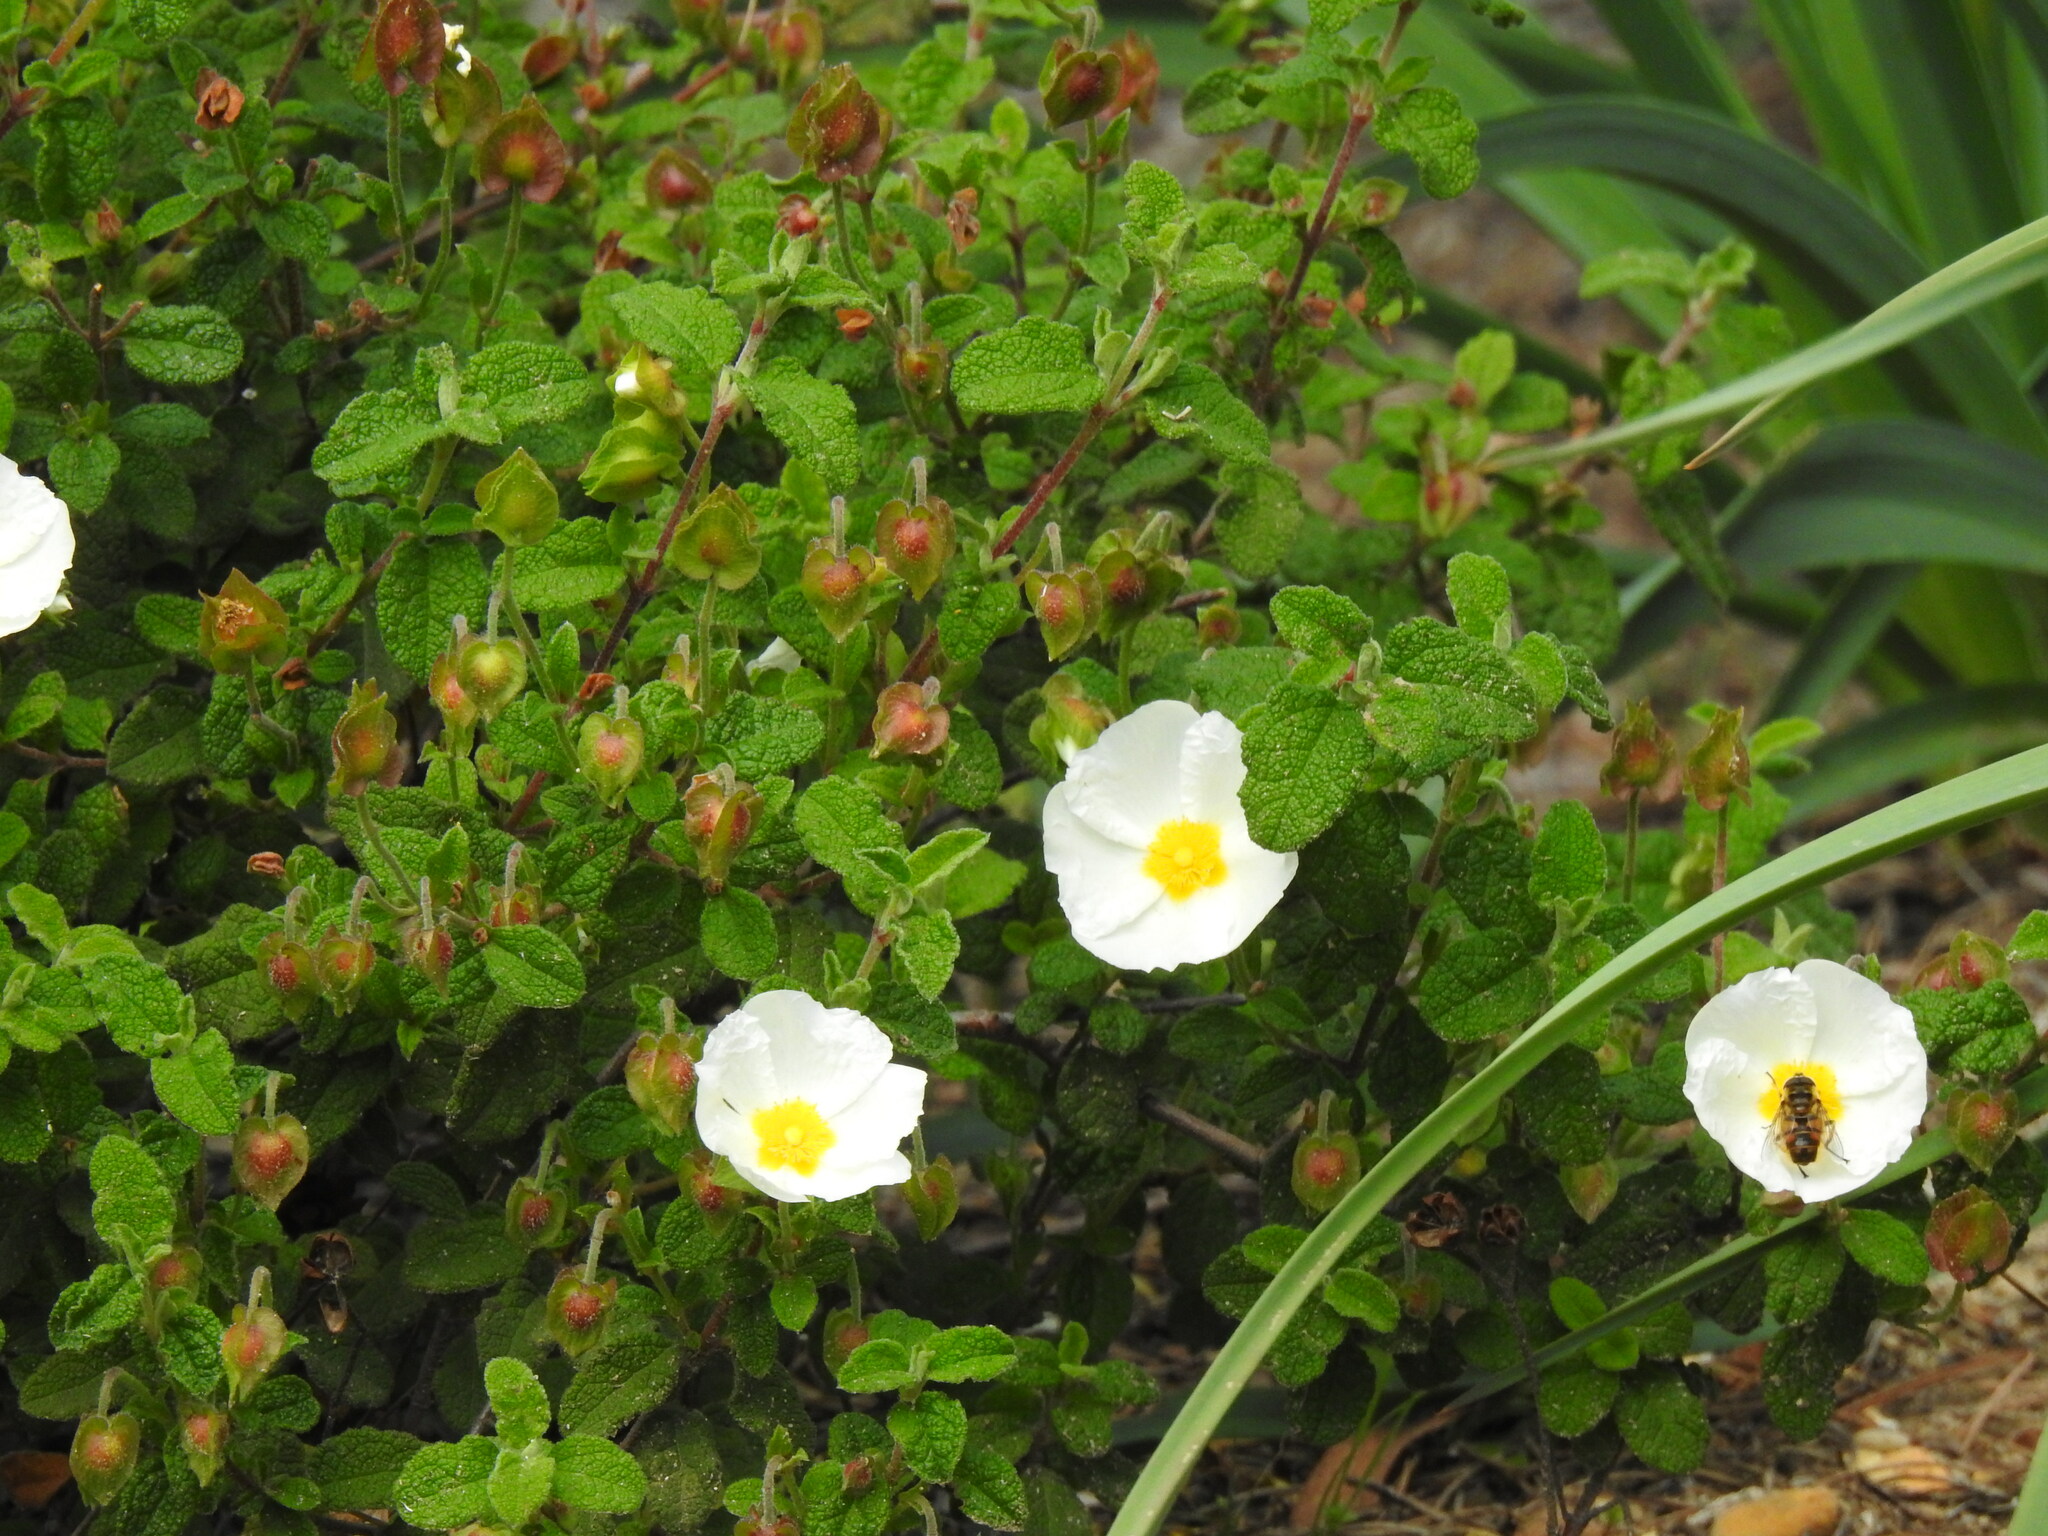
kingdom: Plantae
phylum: Tracheophyta
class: Magnoliopsida
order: Malvales
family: Cistaceae
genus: Cistus
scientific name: Cistus salviifolius
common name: Salvia cistus
